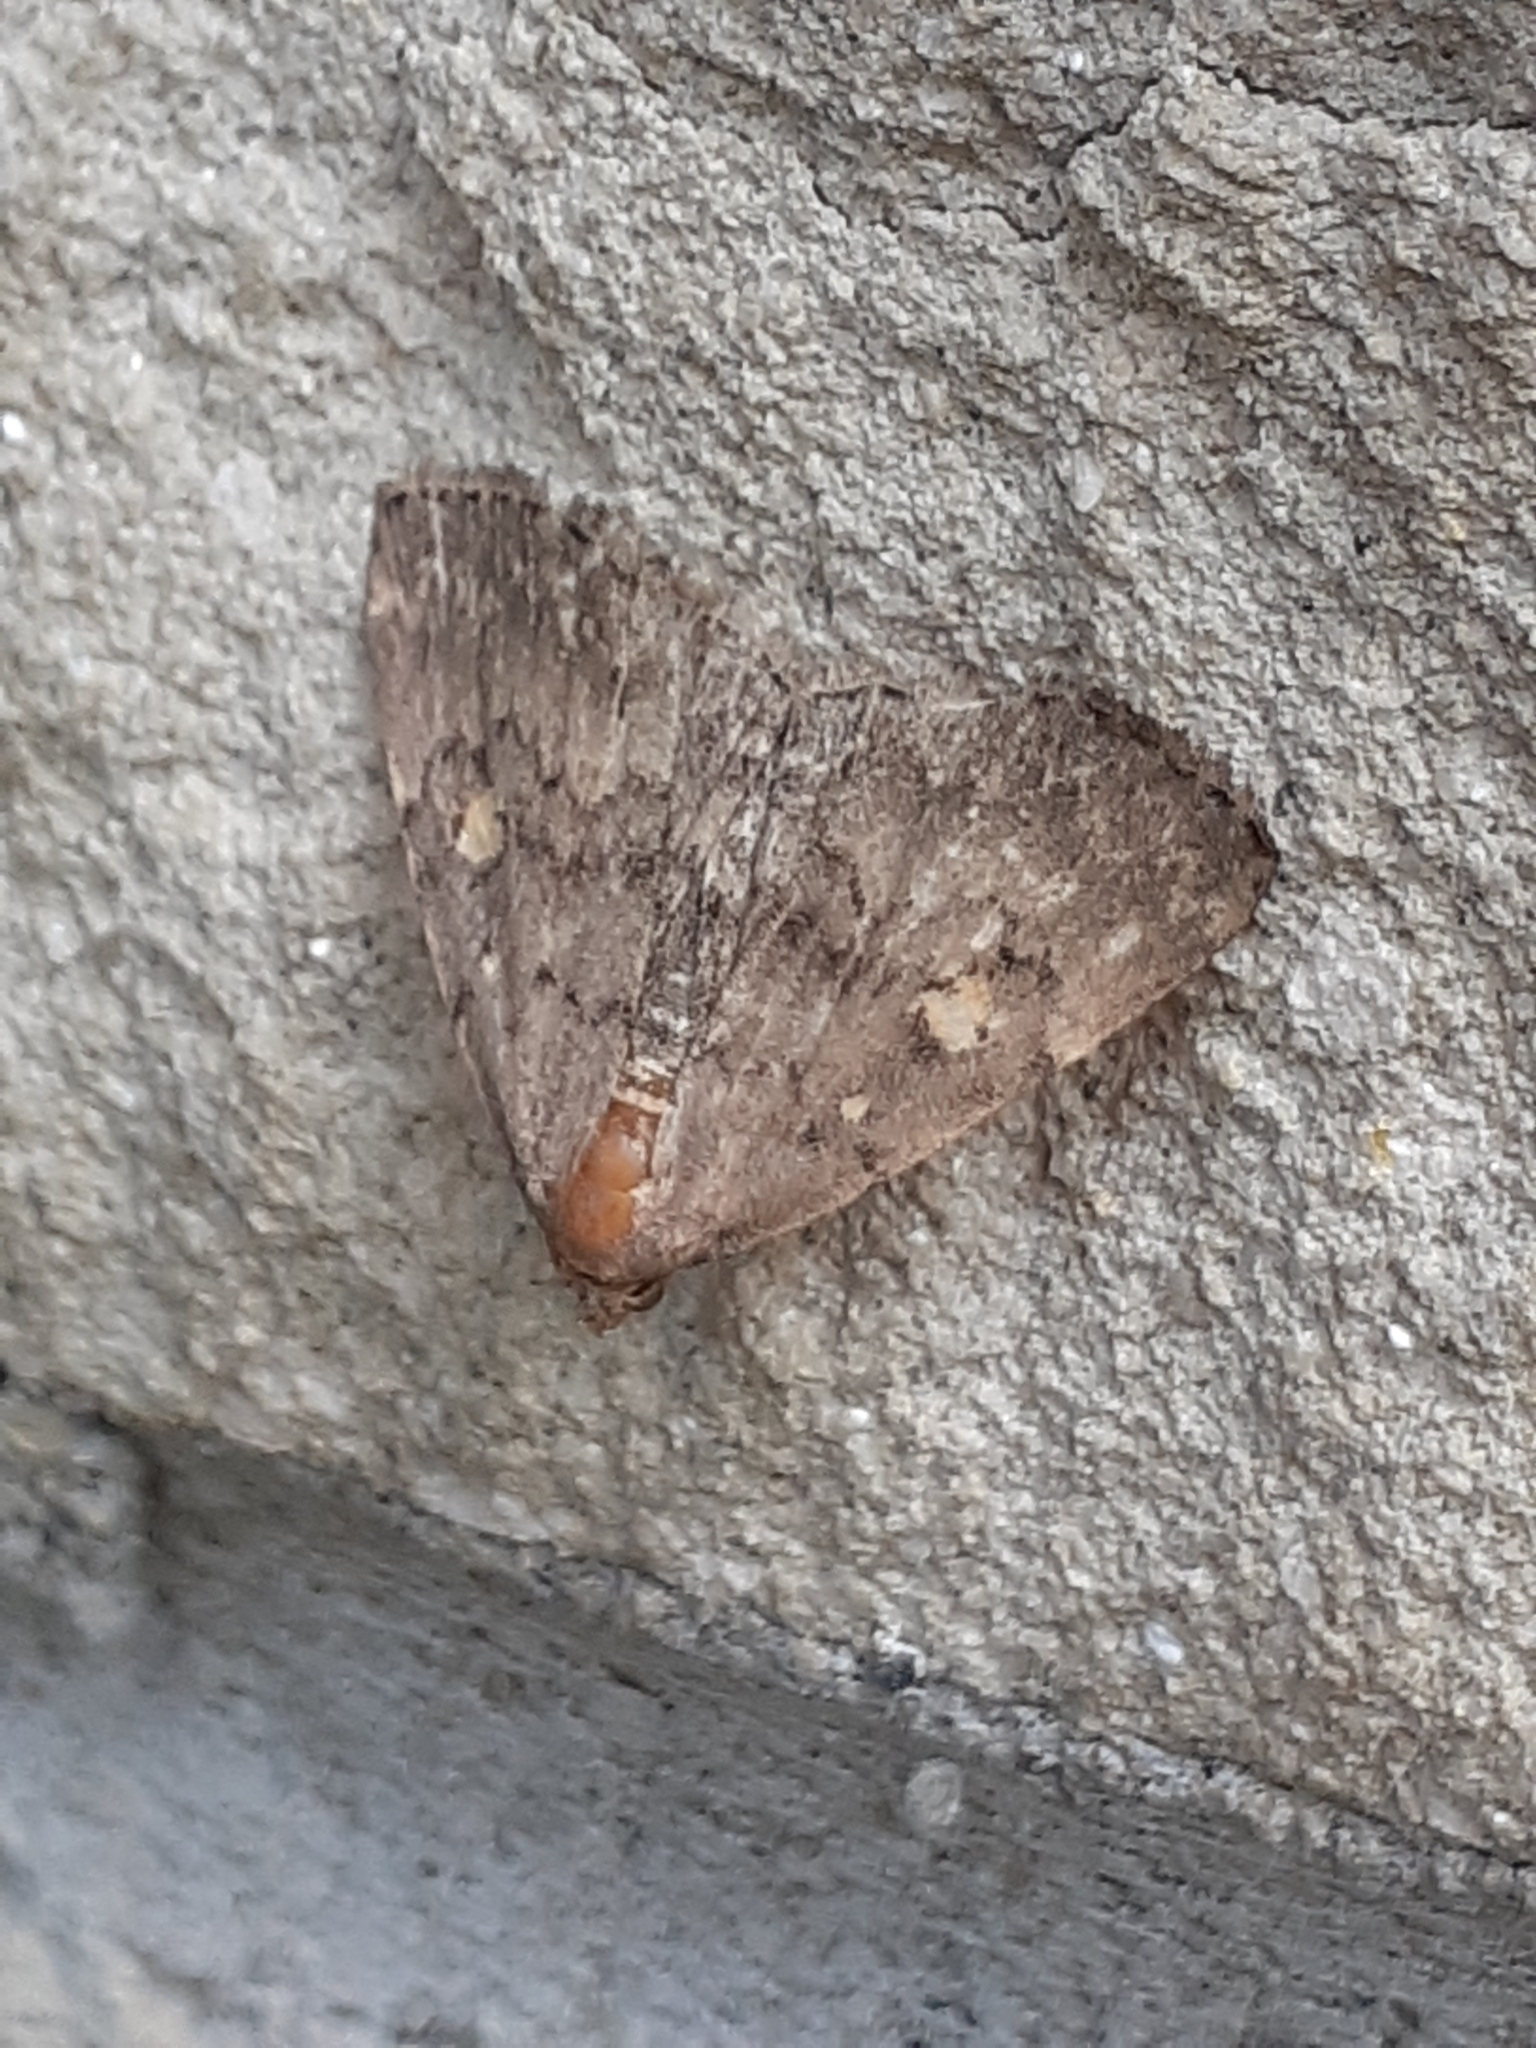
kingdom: Animalia
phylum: Arthropoda
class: Insecta
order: Lepidoptera
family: Erebidae
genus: Idia
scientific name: Idia aemula
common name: Common idia moth
